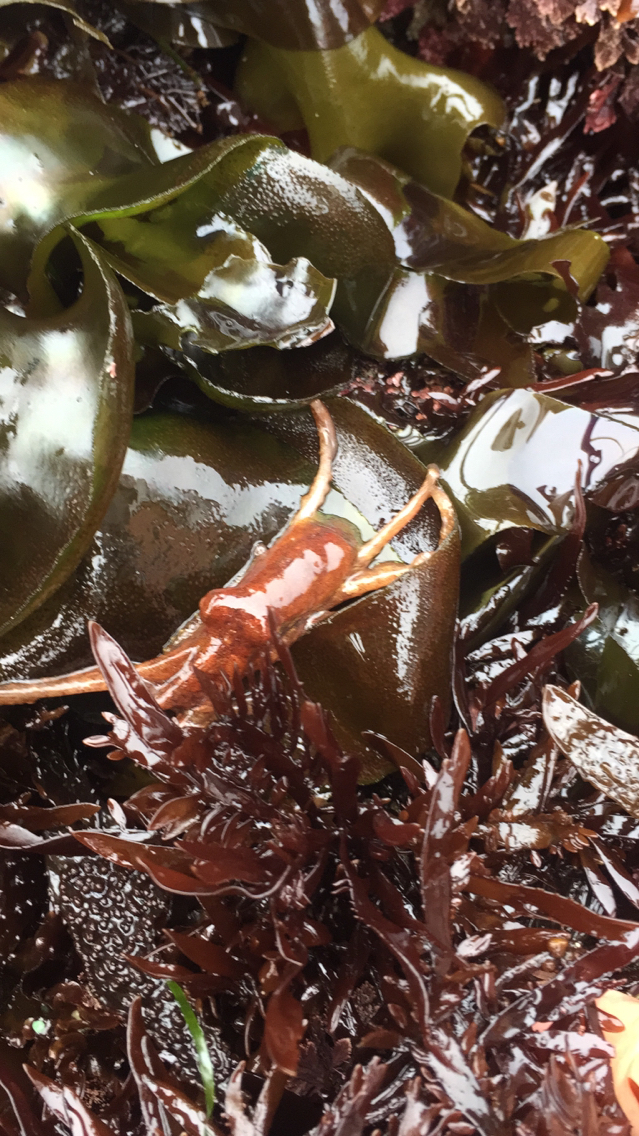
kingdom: Animalia
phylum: Mollusca
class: Cephalopoda
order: Octopoda
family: Octopodidae
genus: Octopus
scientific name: Octopus rubescens
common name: East pacific red octopus
